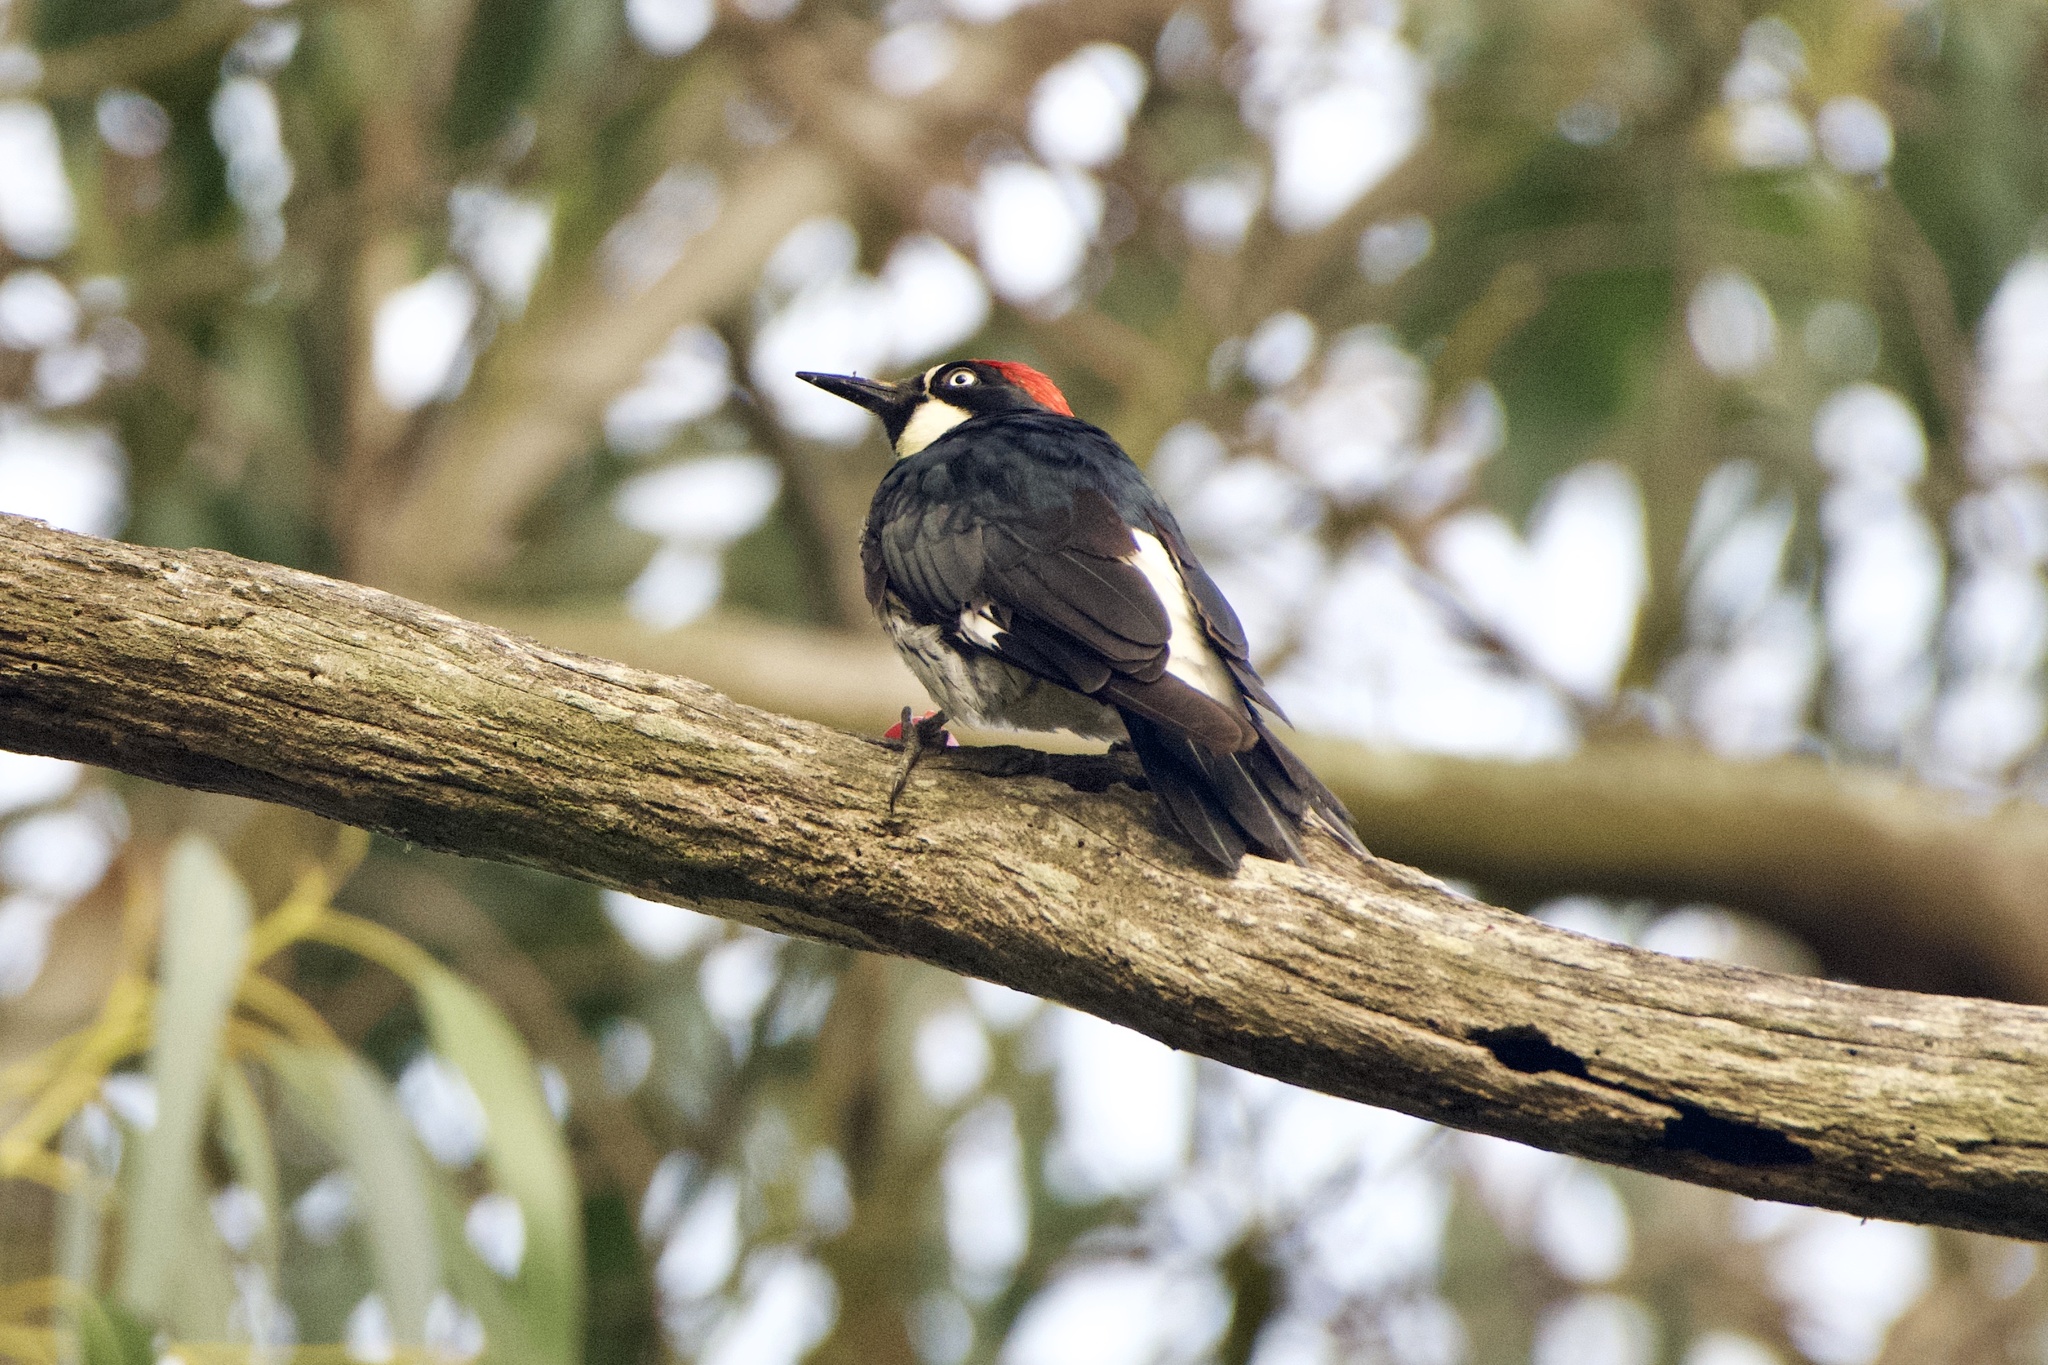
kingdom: Animalia
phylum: Chordata
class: Aves
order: Piciformes
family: Picidae
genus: Melanerpes
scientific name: Melanerpes formicivorus
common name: Acorn woodpecker
